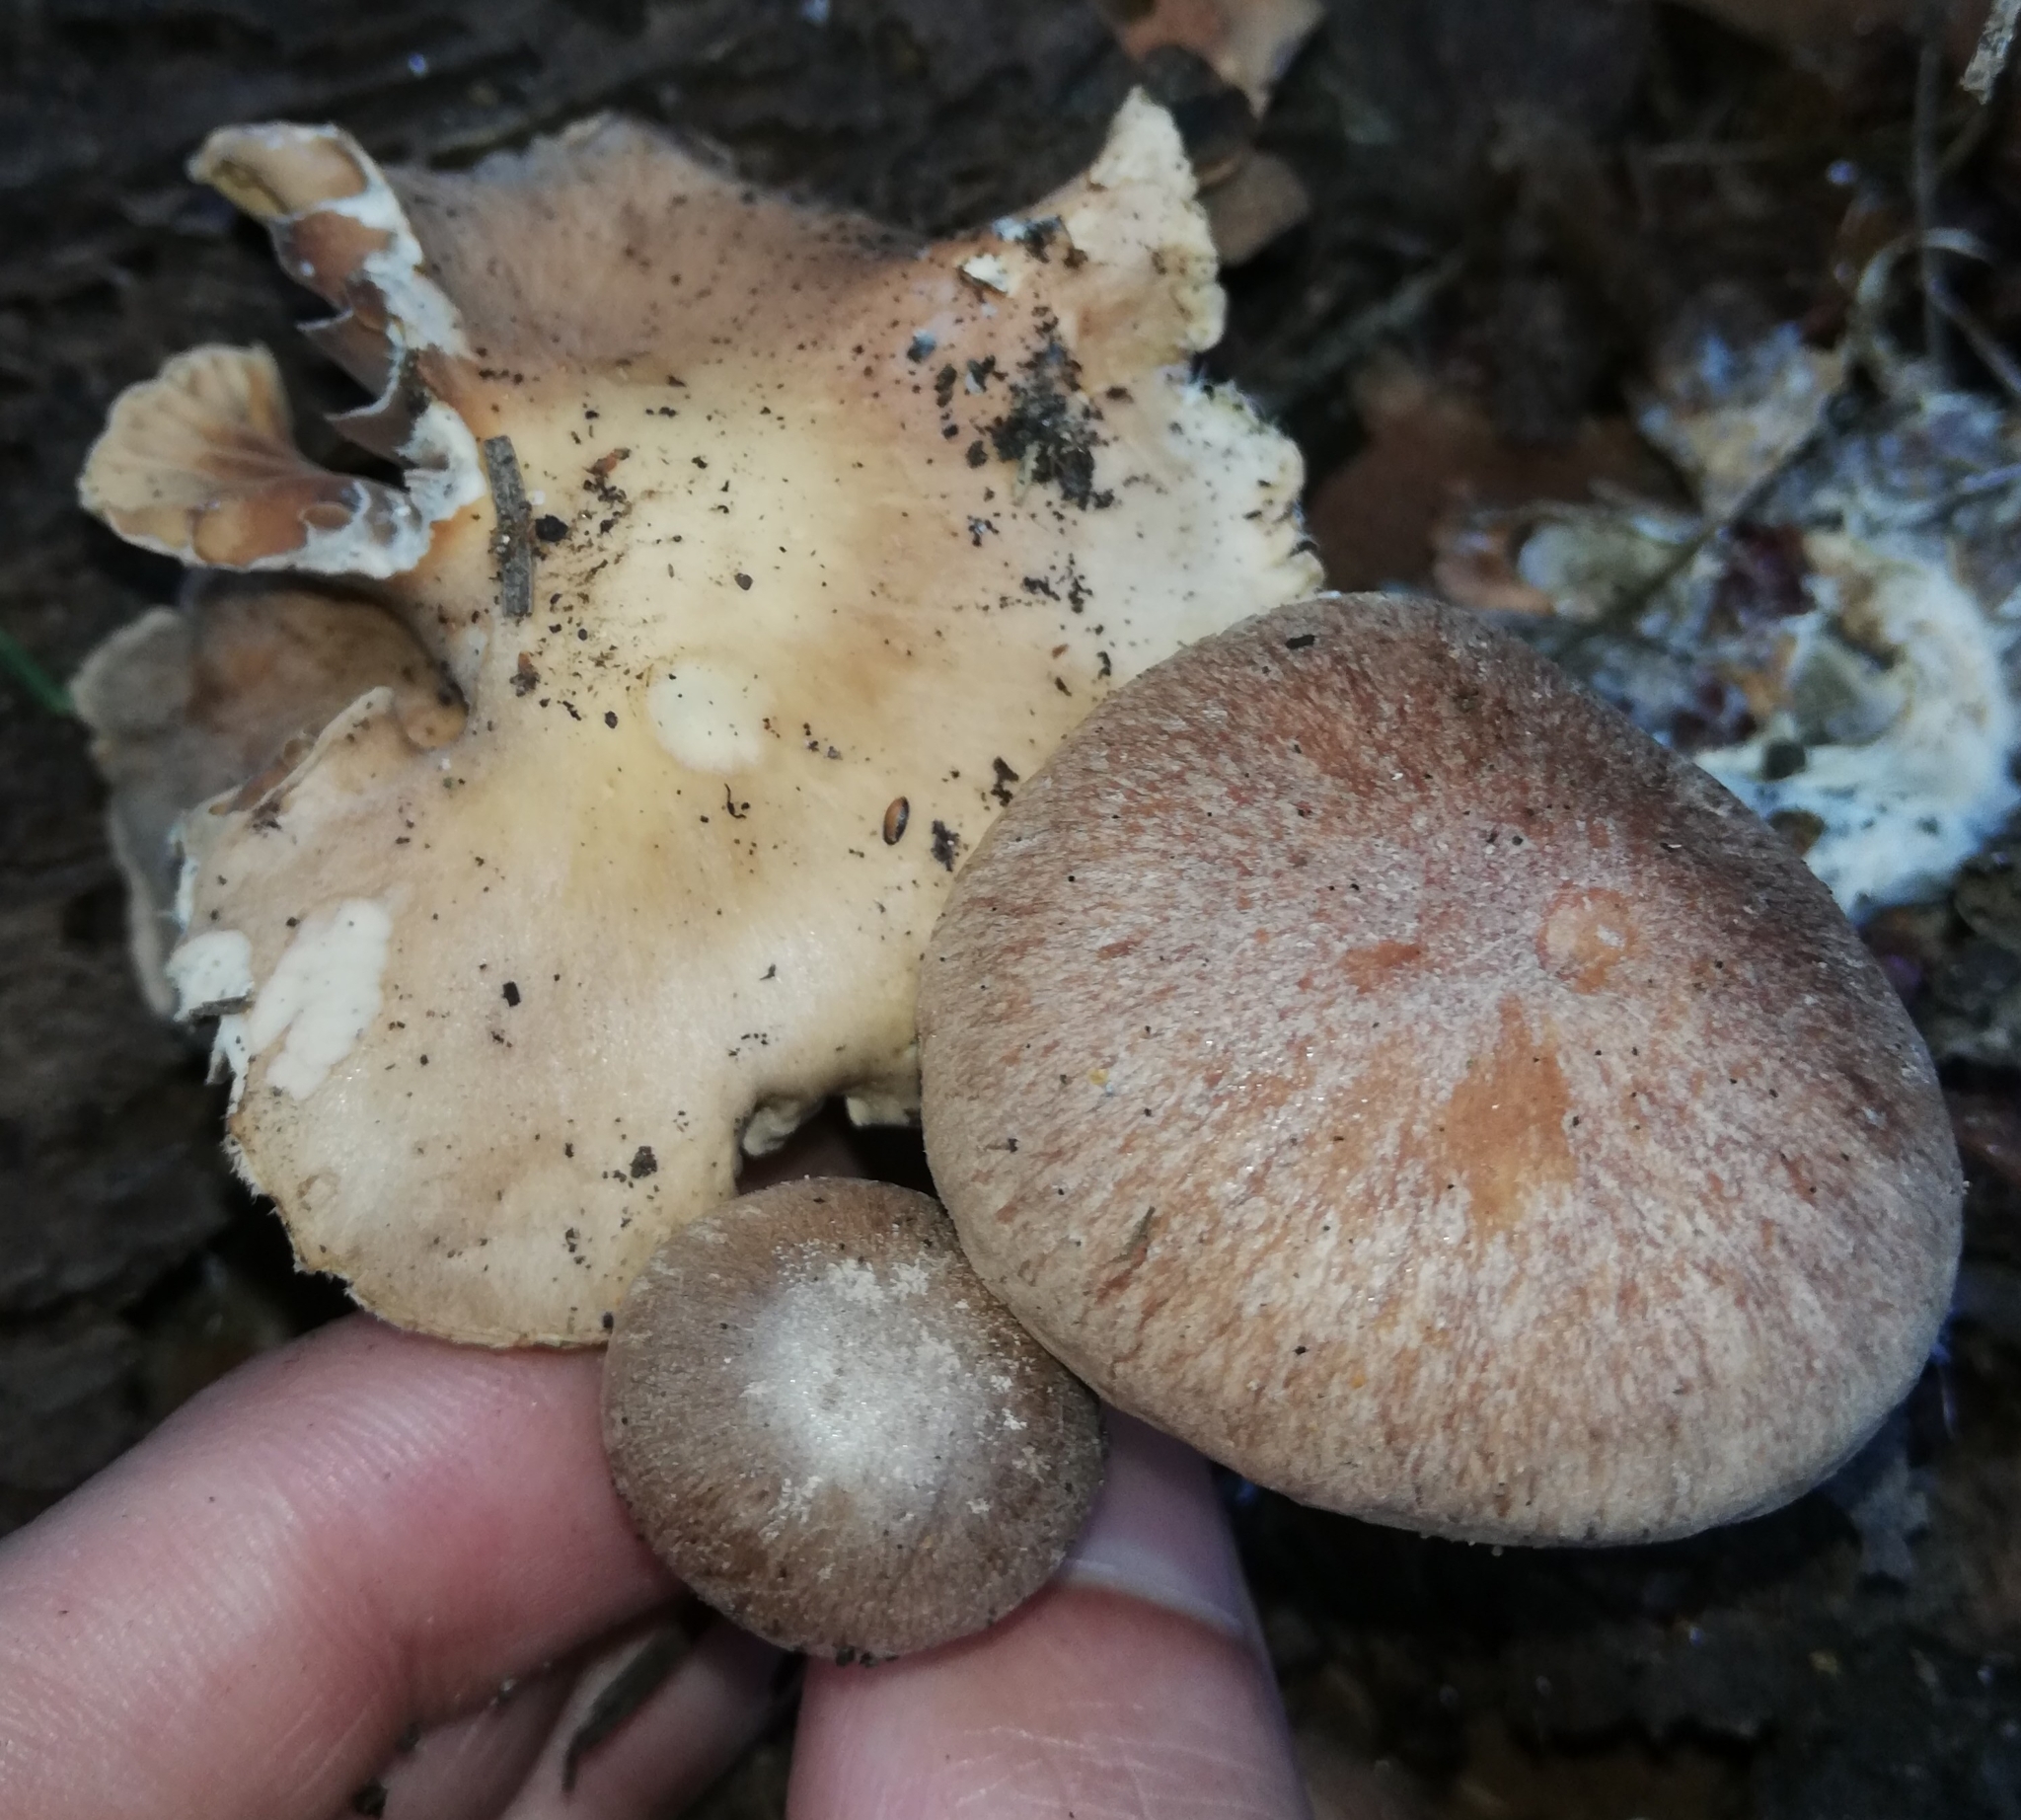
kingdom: Fungi
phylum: Basidiomycota
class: Agaricomycetes
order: Agaricales
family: Omphalotaceae
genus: Collybiopsis
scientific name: Collybiopsis peronata
